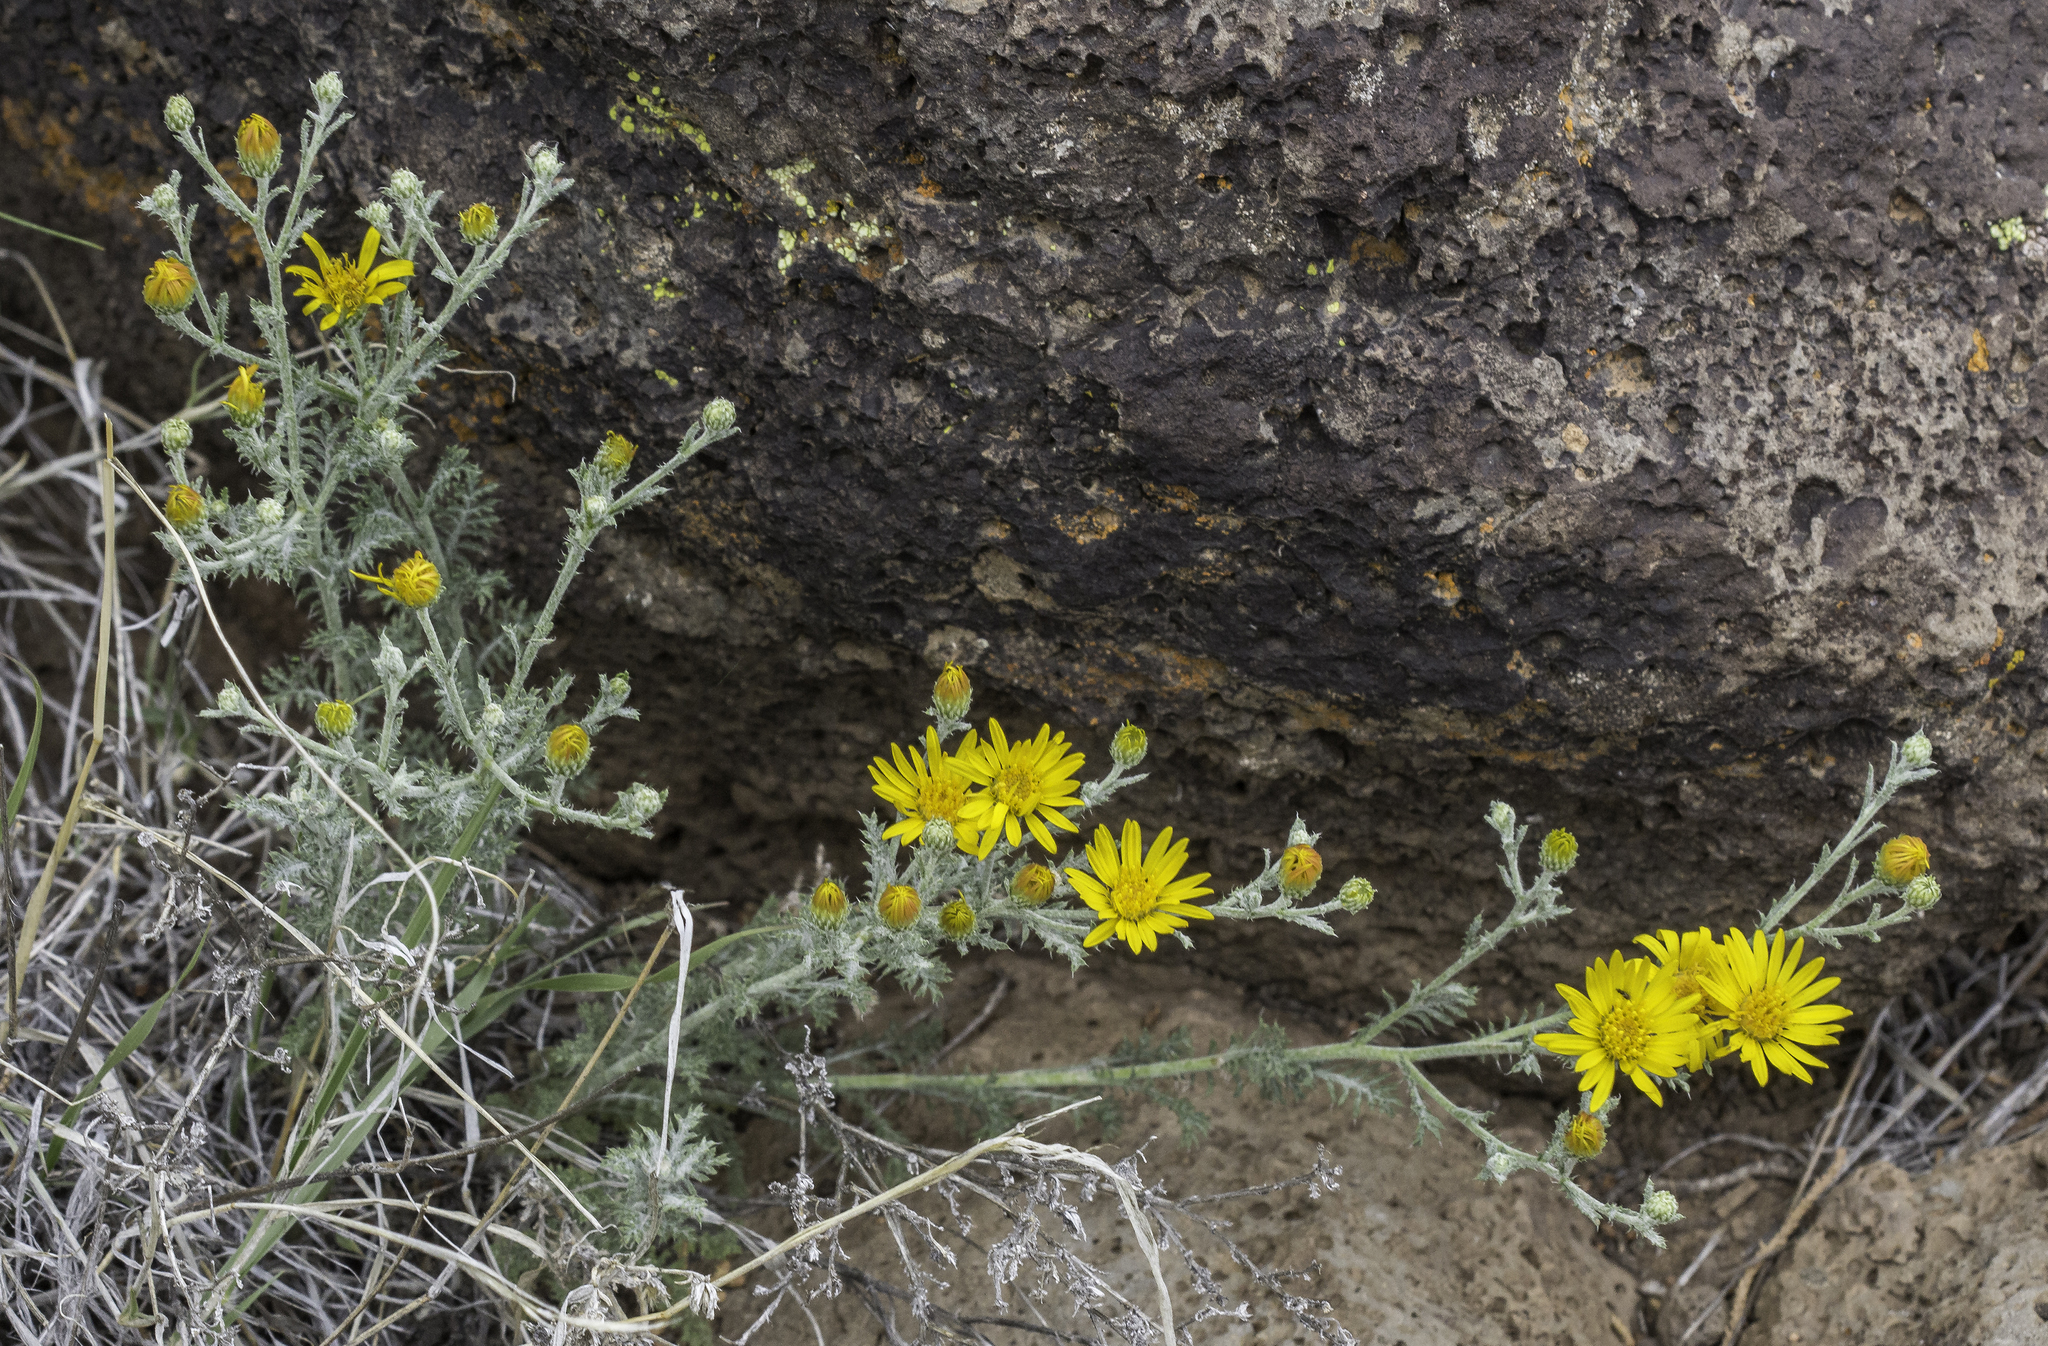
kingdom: Plantae
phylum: Tracheophyta
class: Magnoliopsida
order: Asterales
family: Asteraceae
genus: Xanthisma
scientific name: Xanthisma spinulosum
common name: Spiny goldenweed
